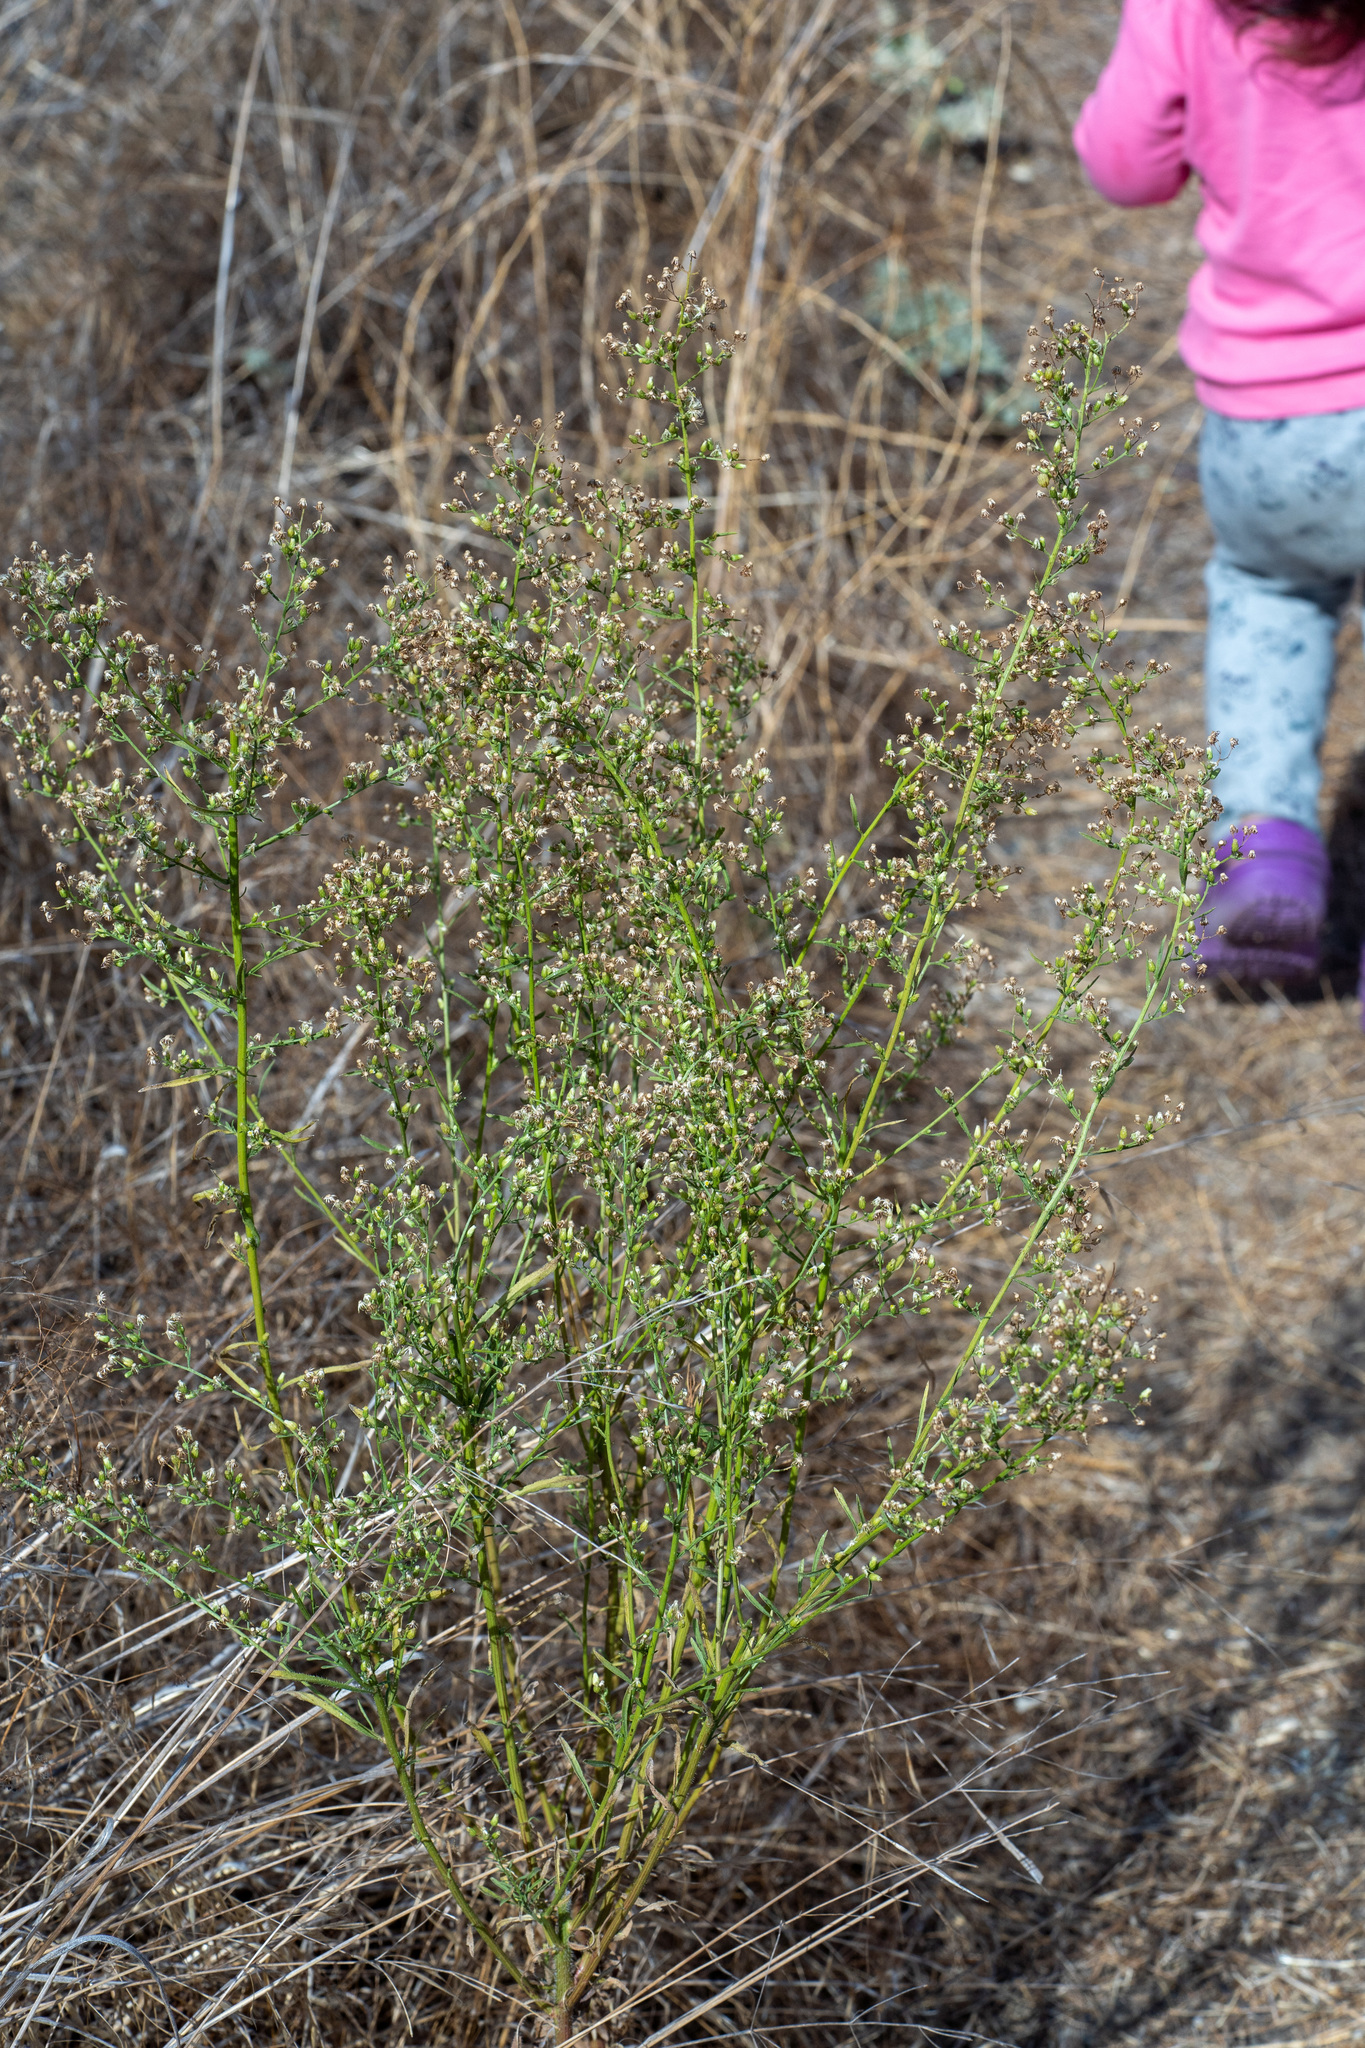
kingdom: Plantae
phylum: Tracheophyta
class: Magnoliopsida
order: Asterales
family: Asteraceae
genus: Erigeron
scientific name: Erigeron canadensis
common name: Canadian fleabane
